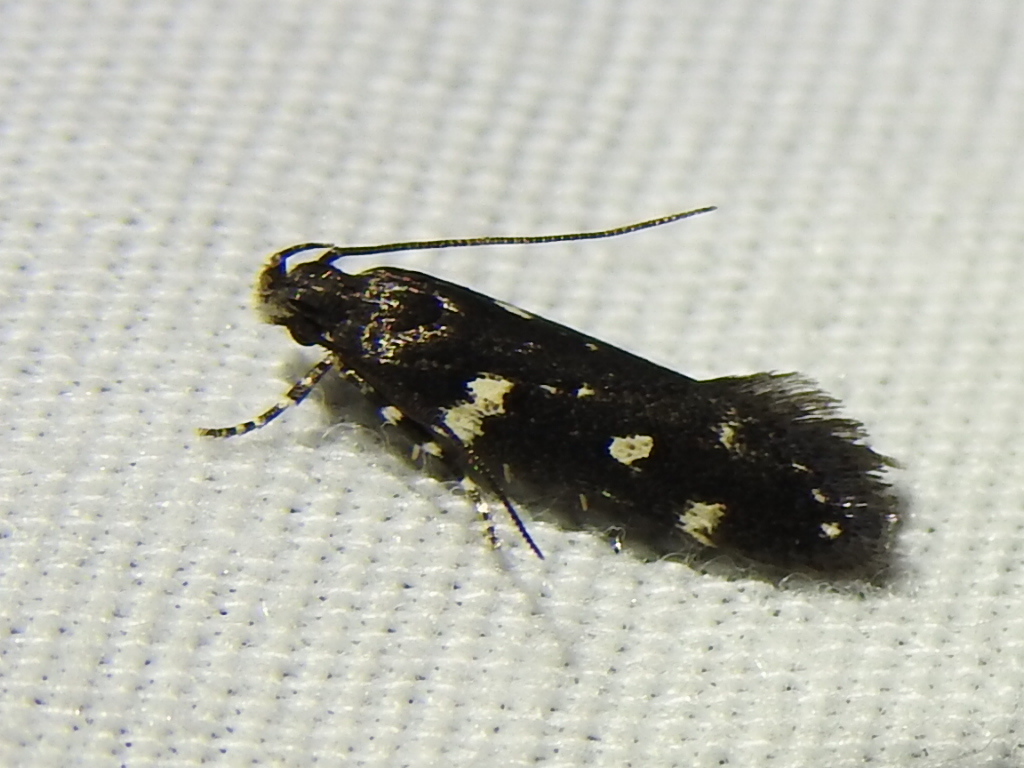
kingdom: Animalia
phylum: Arthropoda
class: Insecta
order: Lepidoptera
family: Gelechiidae
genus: Aroga
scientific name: Aroga compositella
